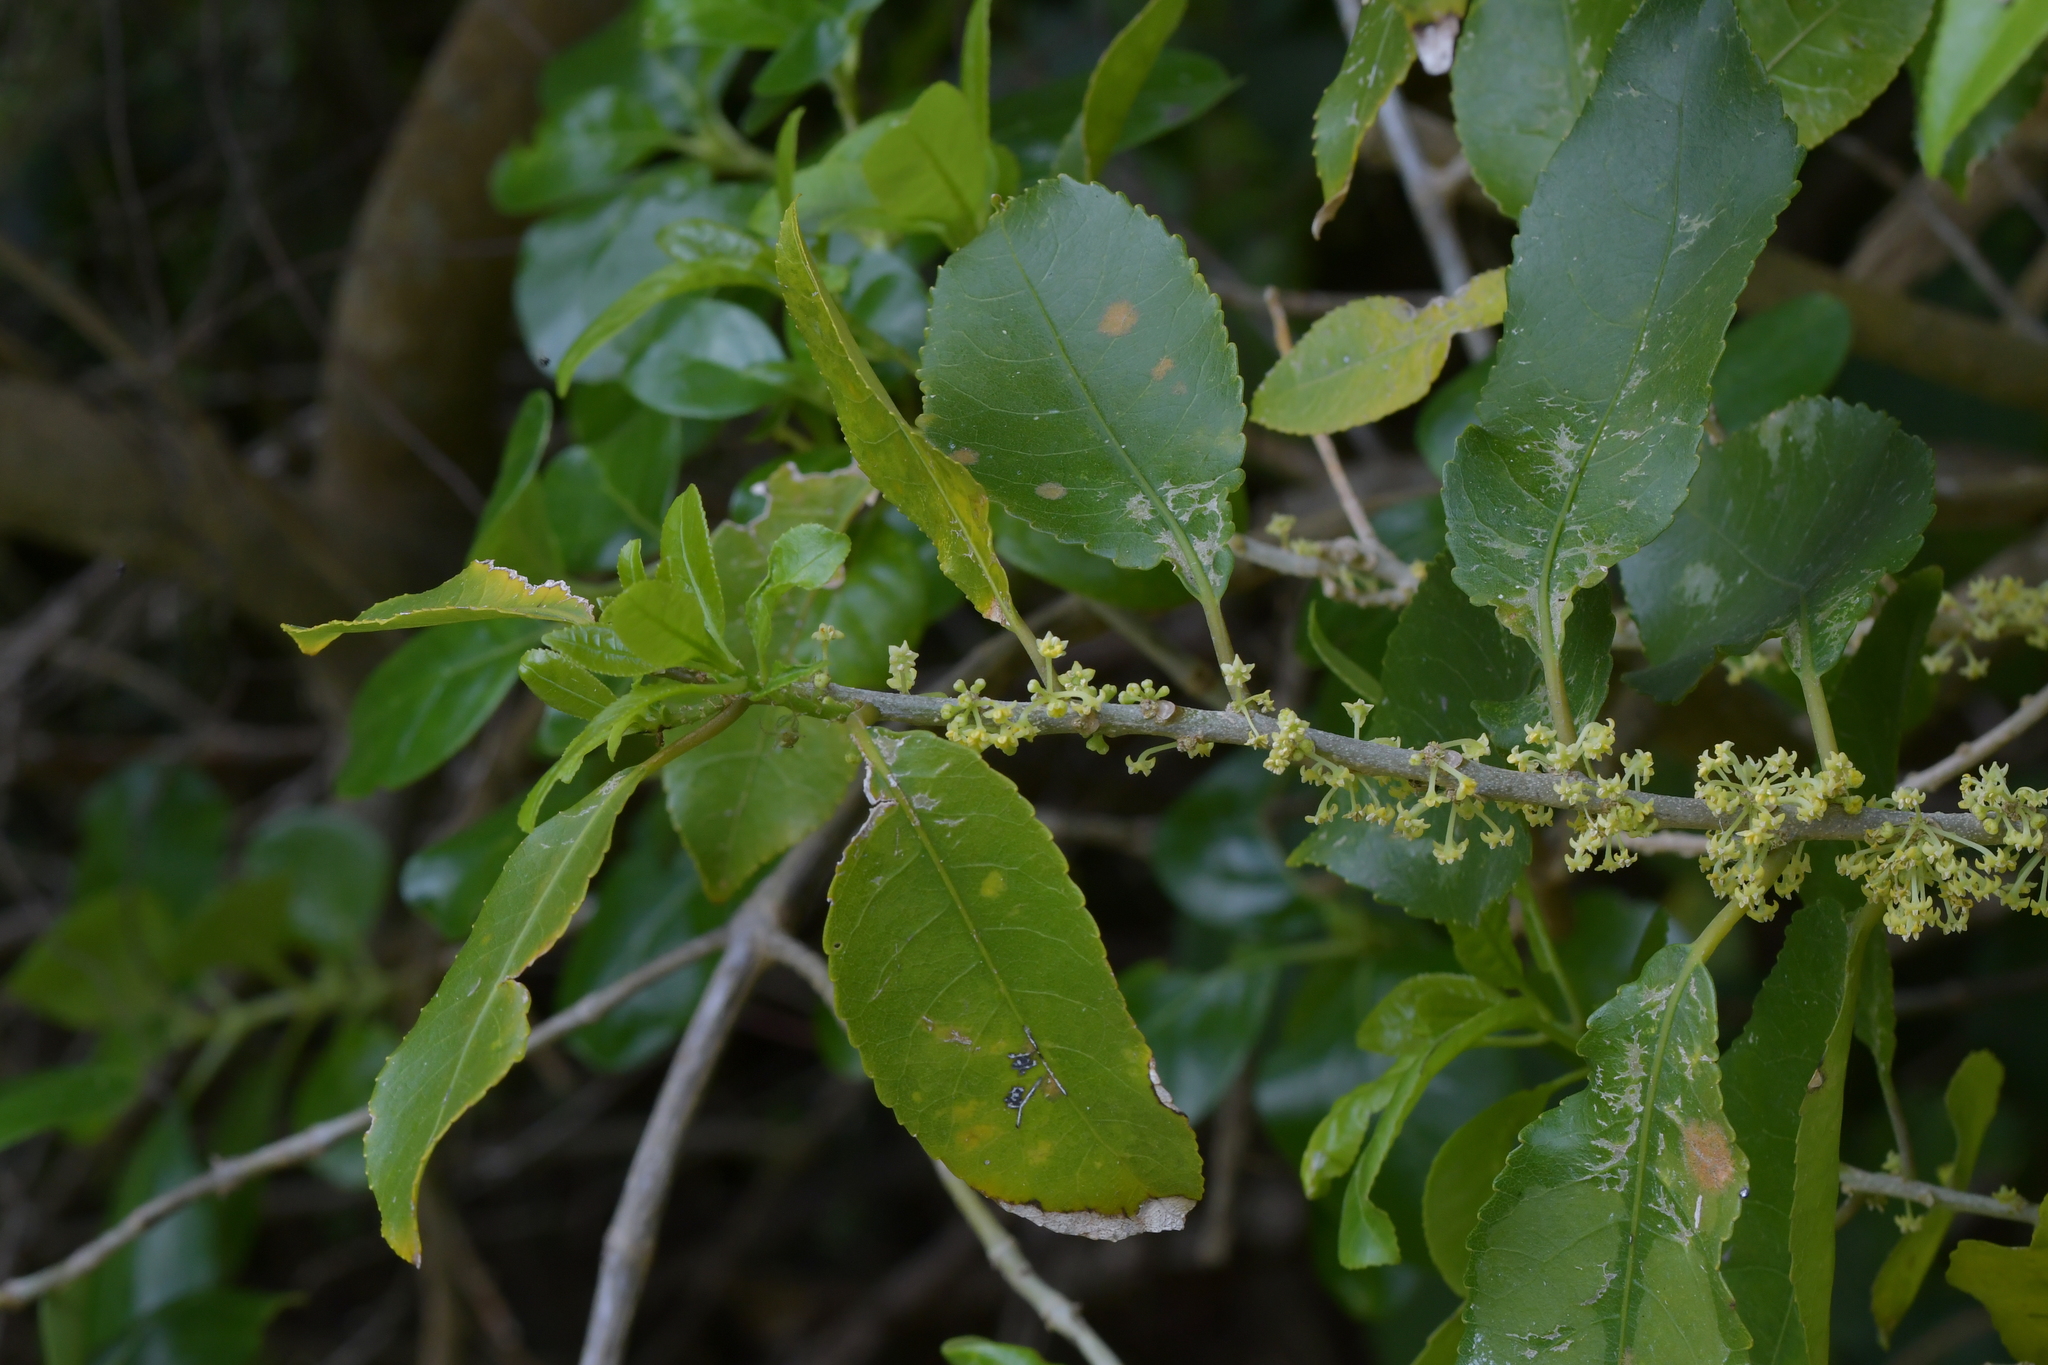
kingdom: Plantae
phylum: Tracheophyta
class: Magnoliopsida
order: Malpighiales
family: Violaceae
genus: Melicytus
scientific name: Melicytus ramiflorus
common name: Mahoe
